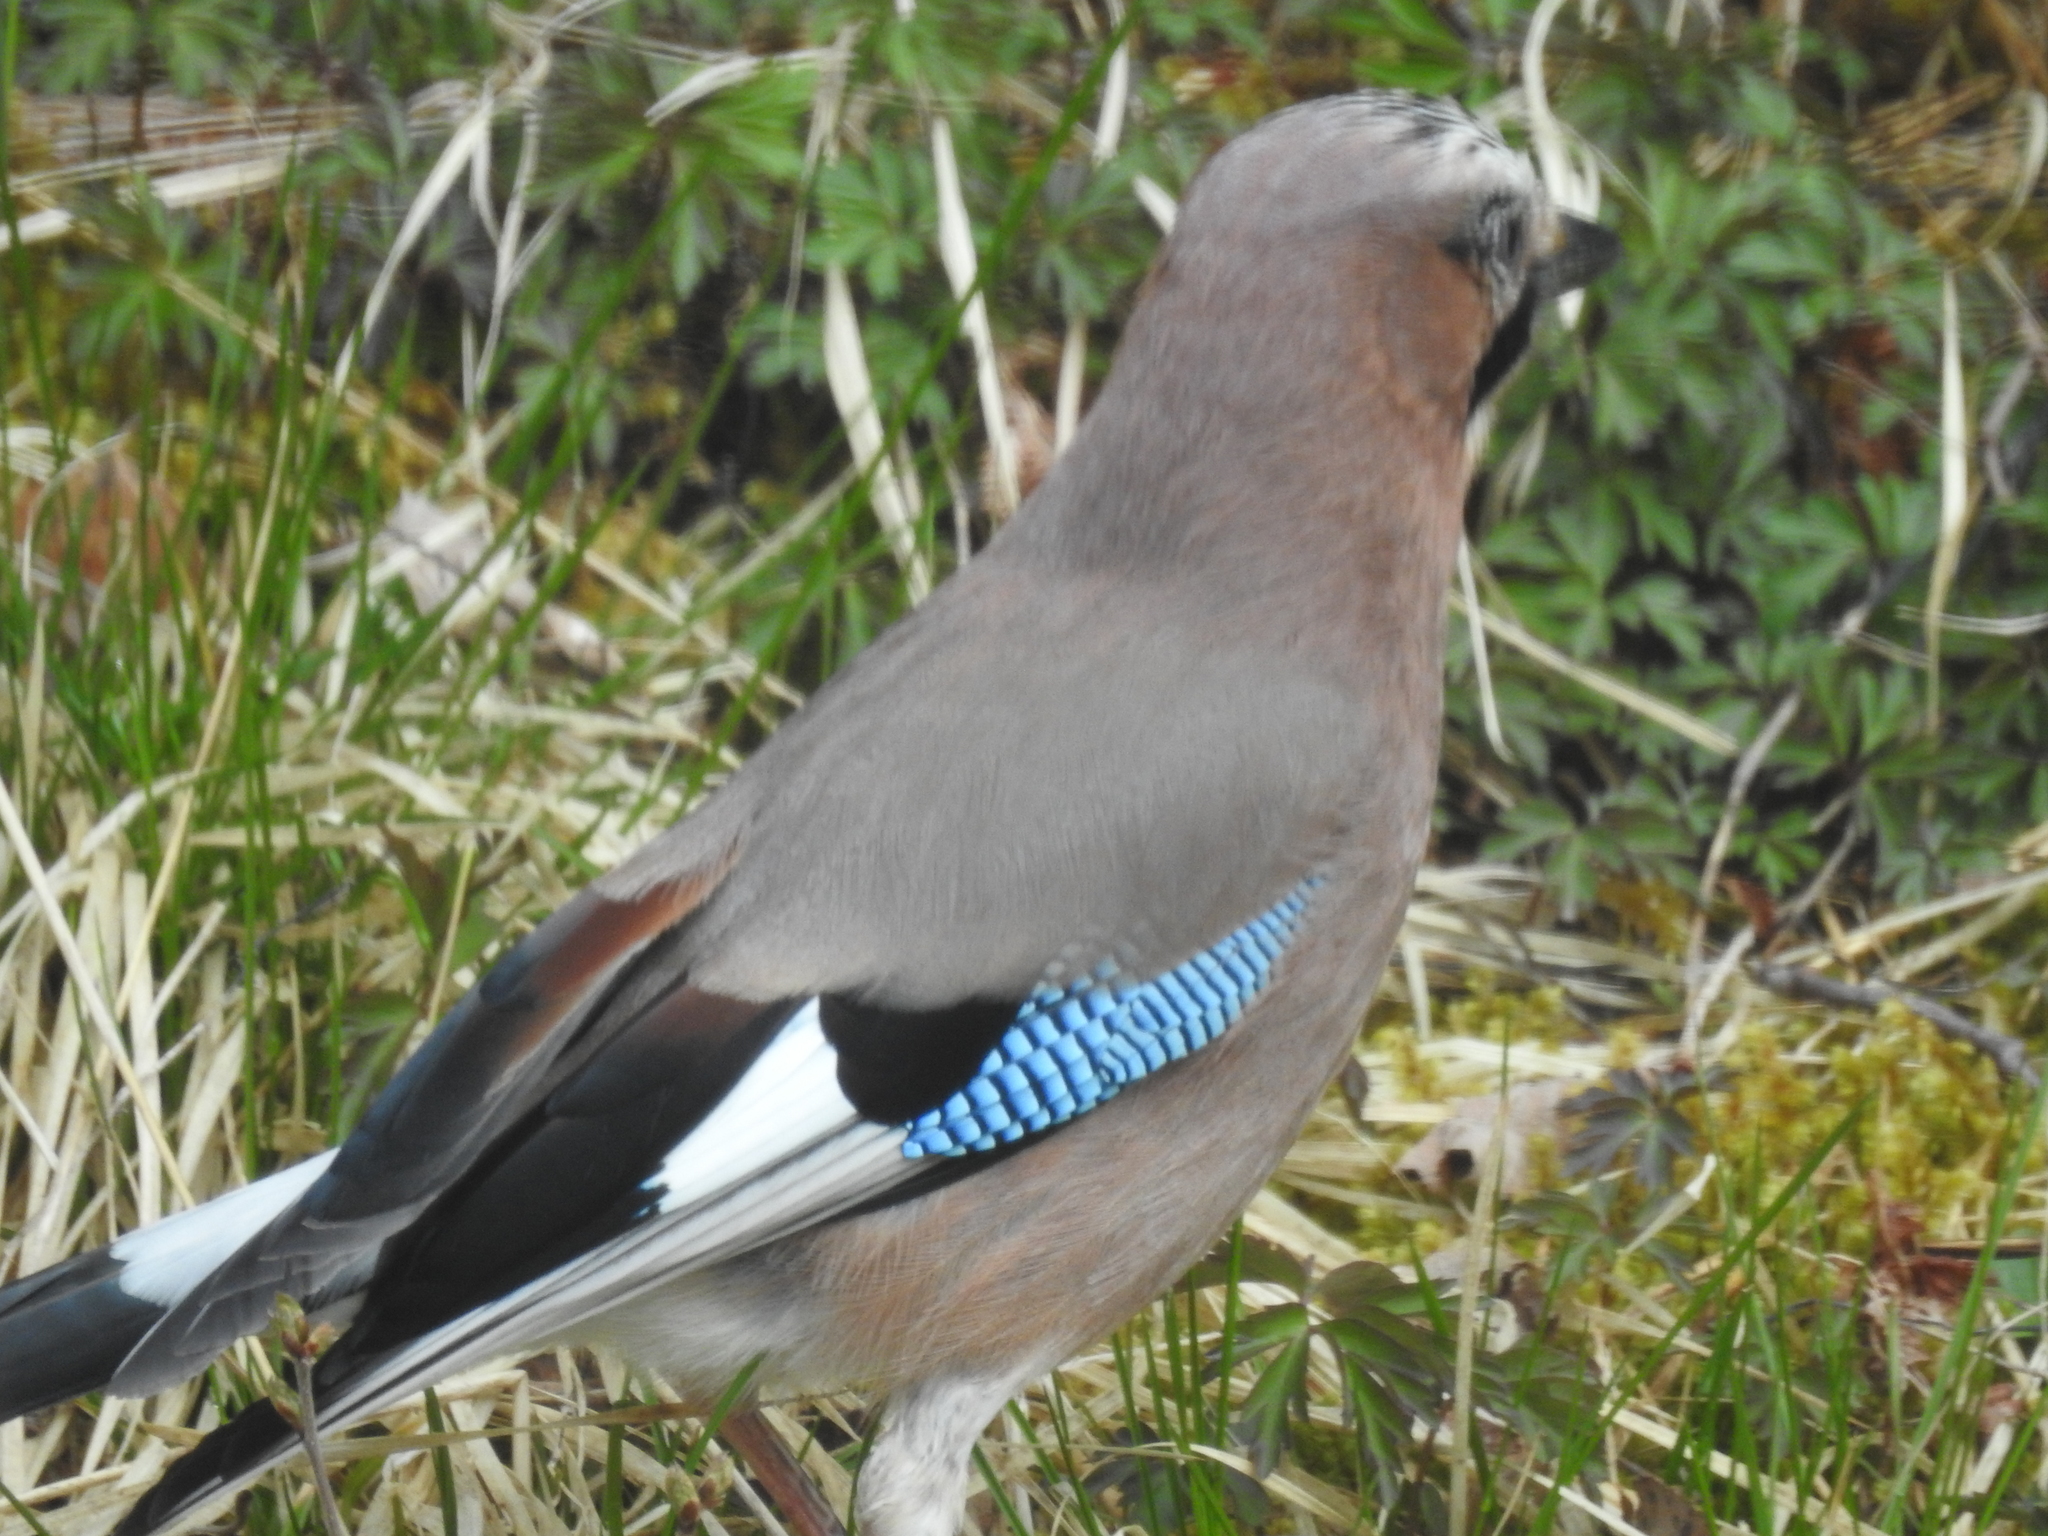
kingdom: Animalia
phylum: Chordata
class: Aves
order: Passeriformes
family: Corvidae
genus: Garrulus
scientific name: Garrulus glandarius
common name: Eurasian jay
